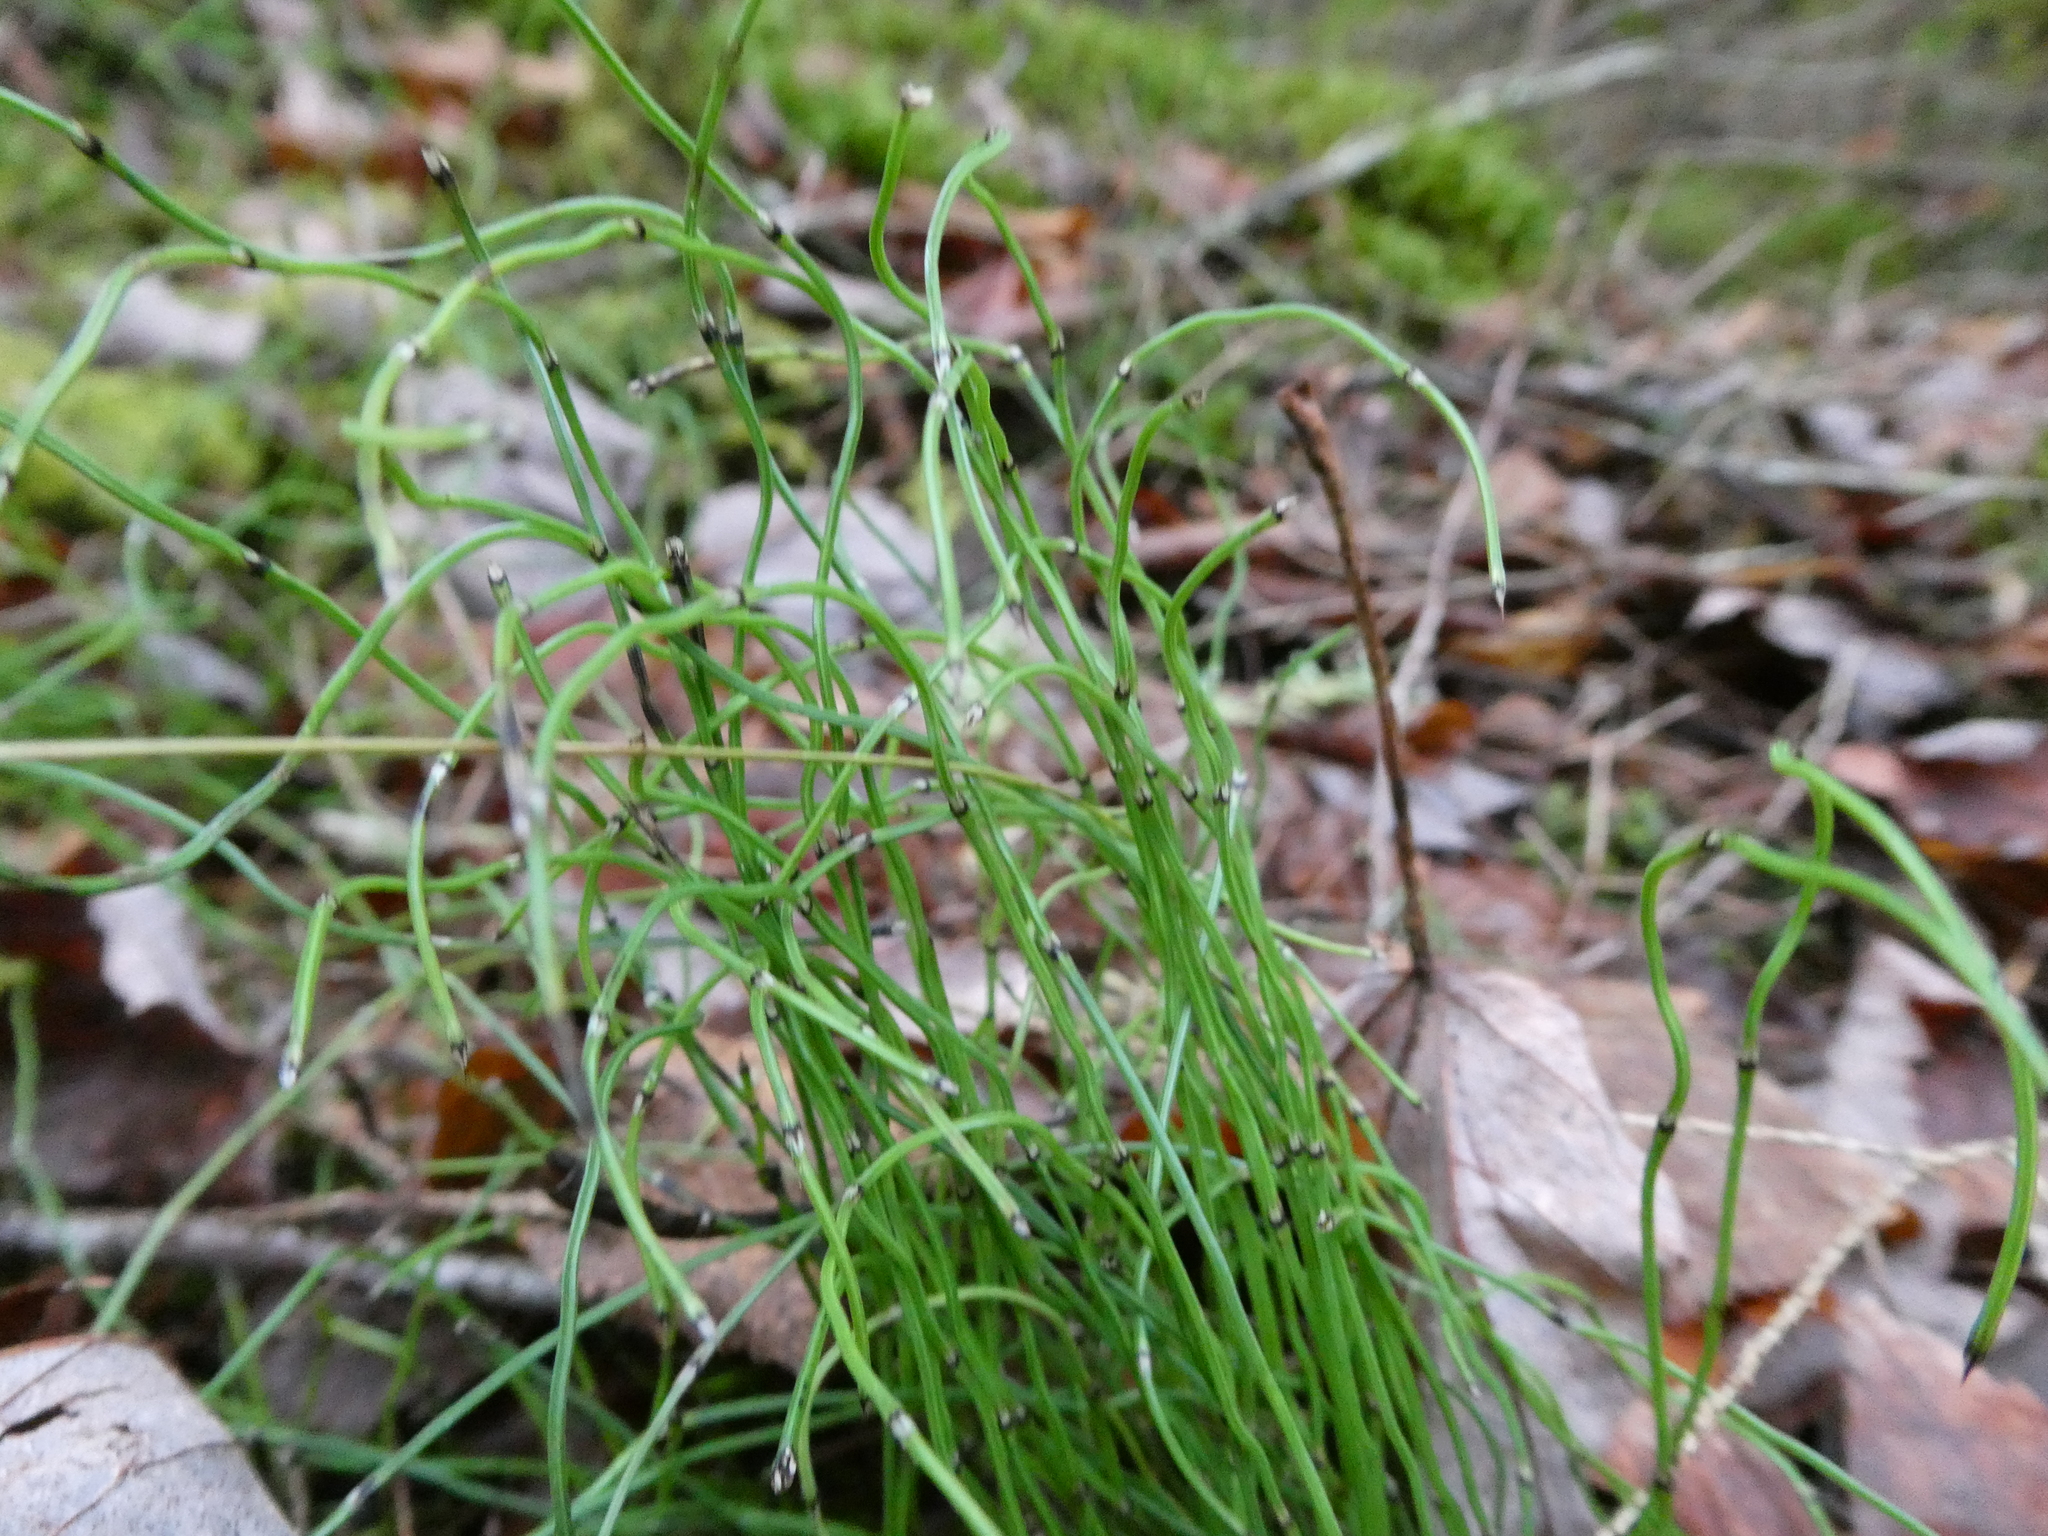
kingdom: Plantae
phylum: Tracheophyta
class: Polypodiopsida
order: Equisetales
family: Equisetaceae
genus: Equisetum
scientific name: Equisetum scirpoides
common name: Delicate horsetail
